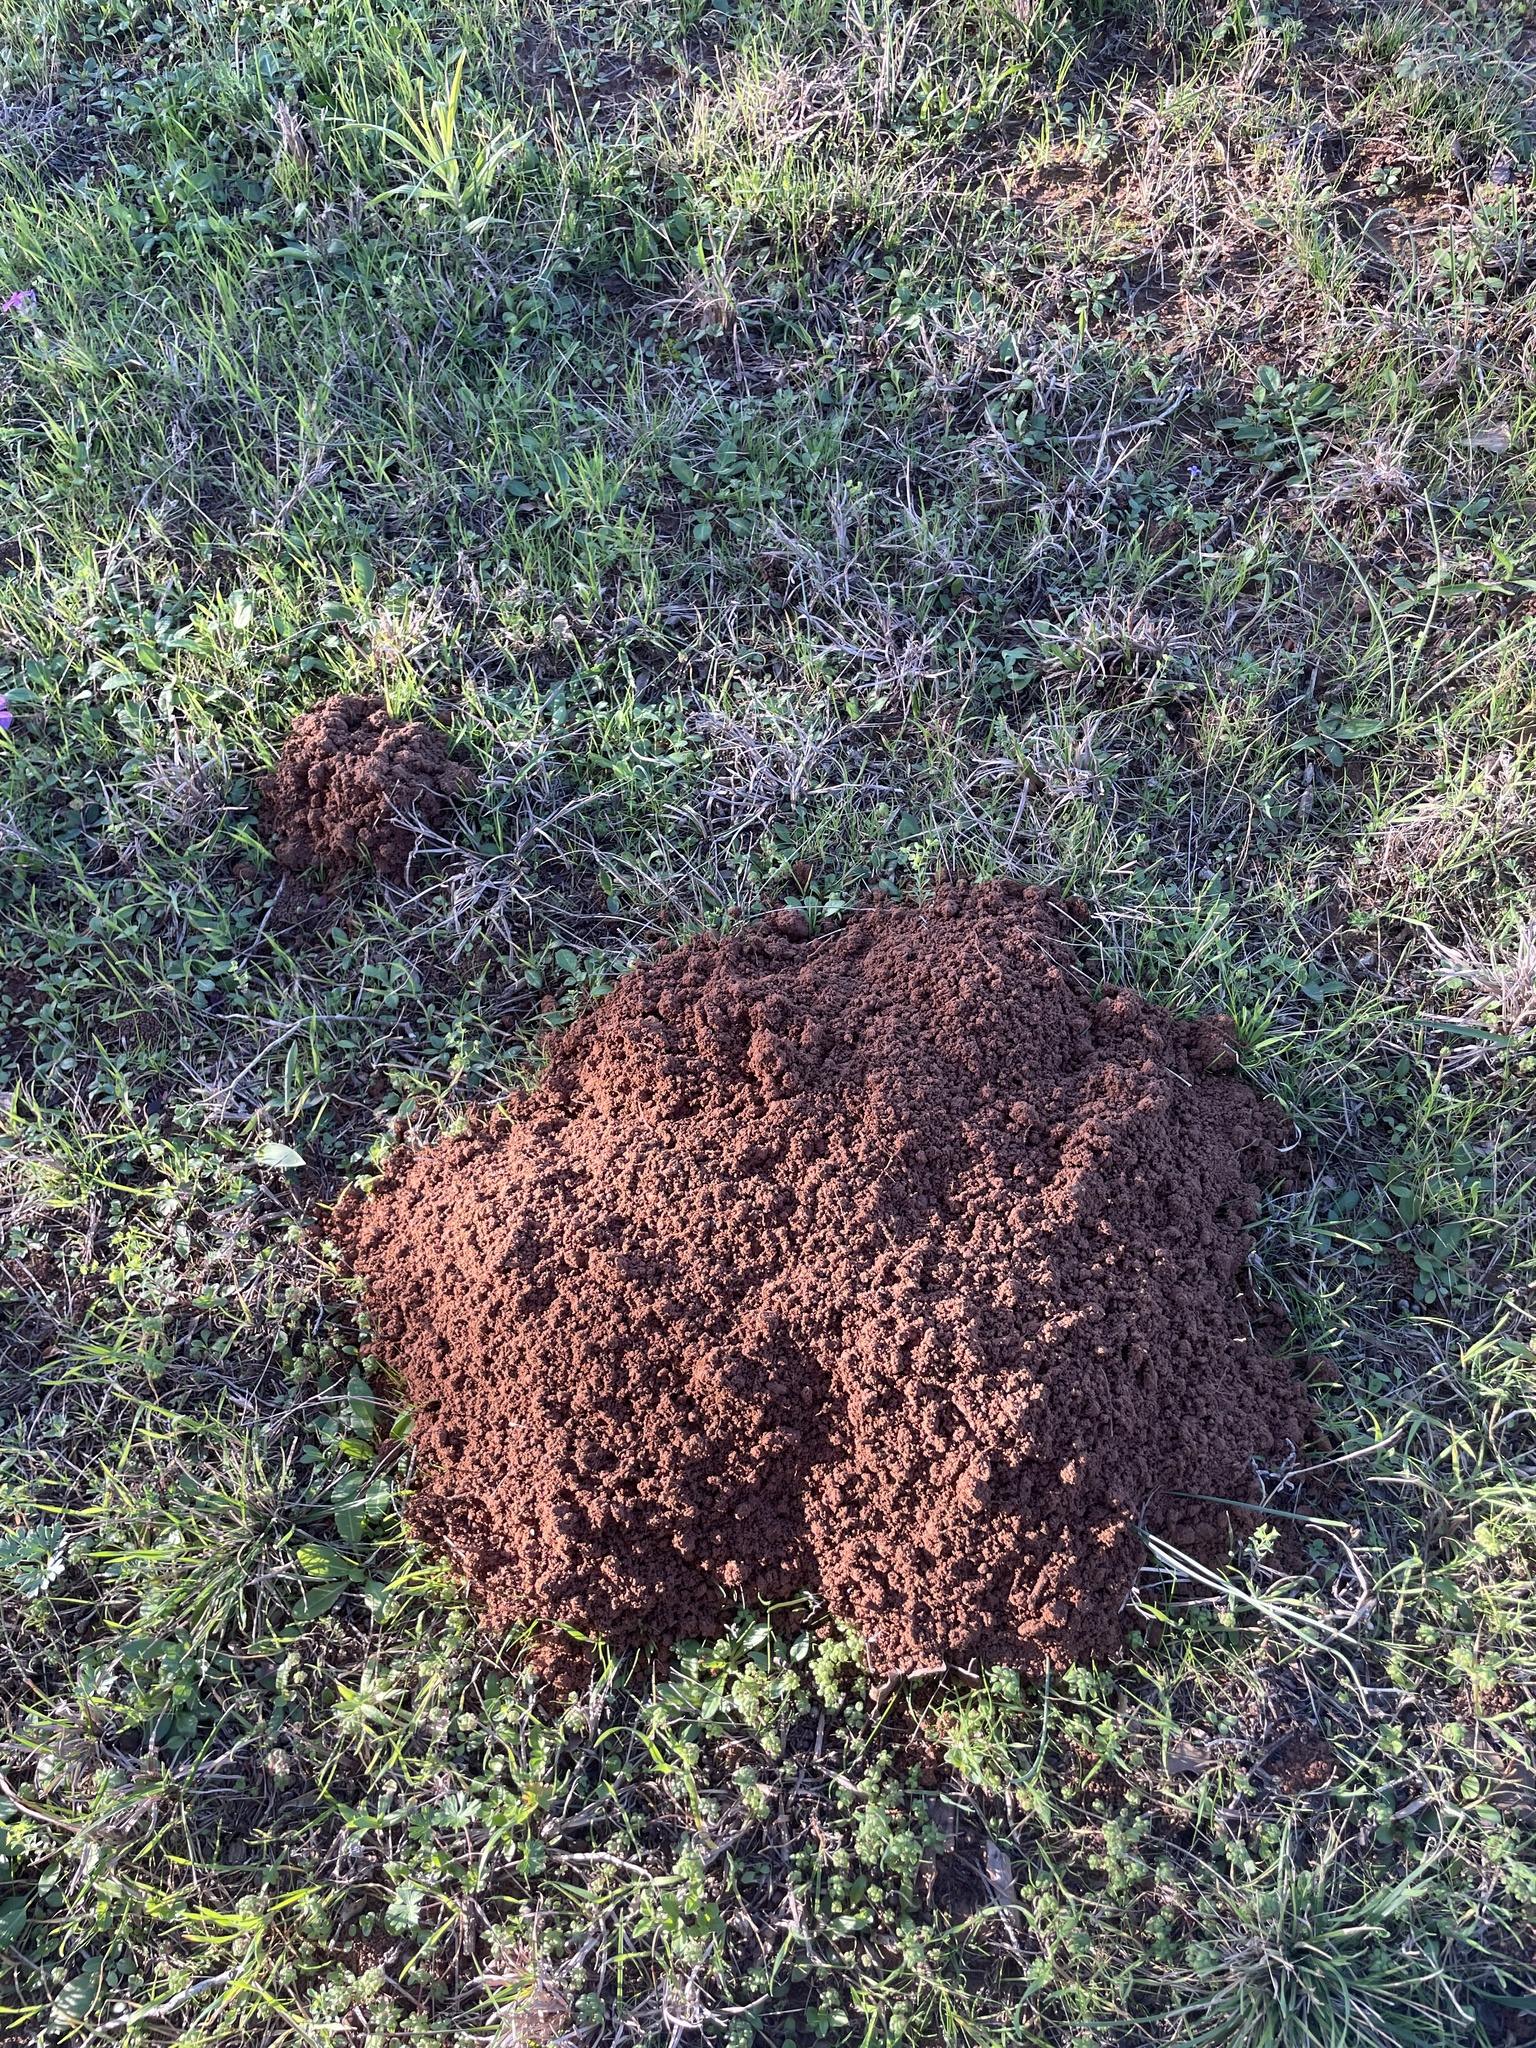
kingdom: Animalia
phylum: Chordata
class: Mammalia
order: Rodentia
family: Geomyidae
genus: Geomys
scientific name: Geomys attwateri
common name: Attwater's pocket gopher
